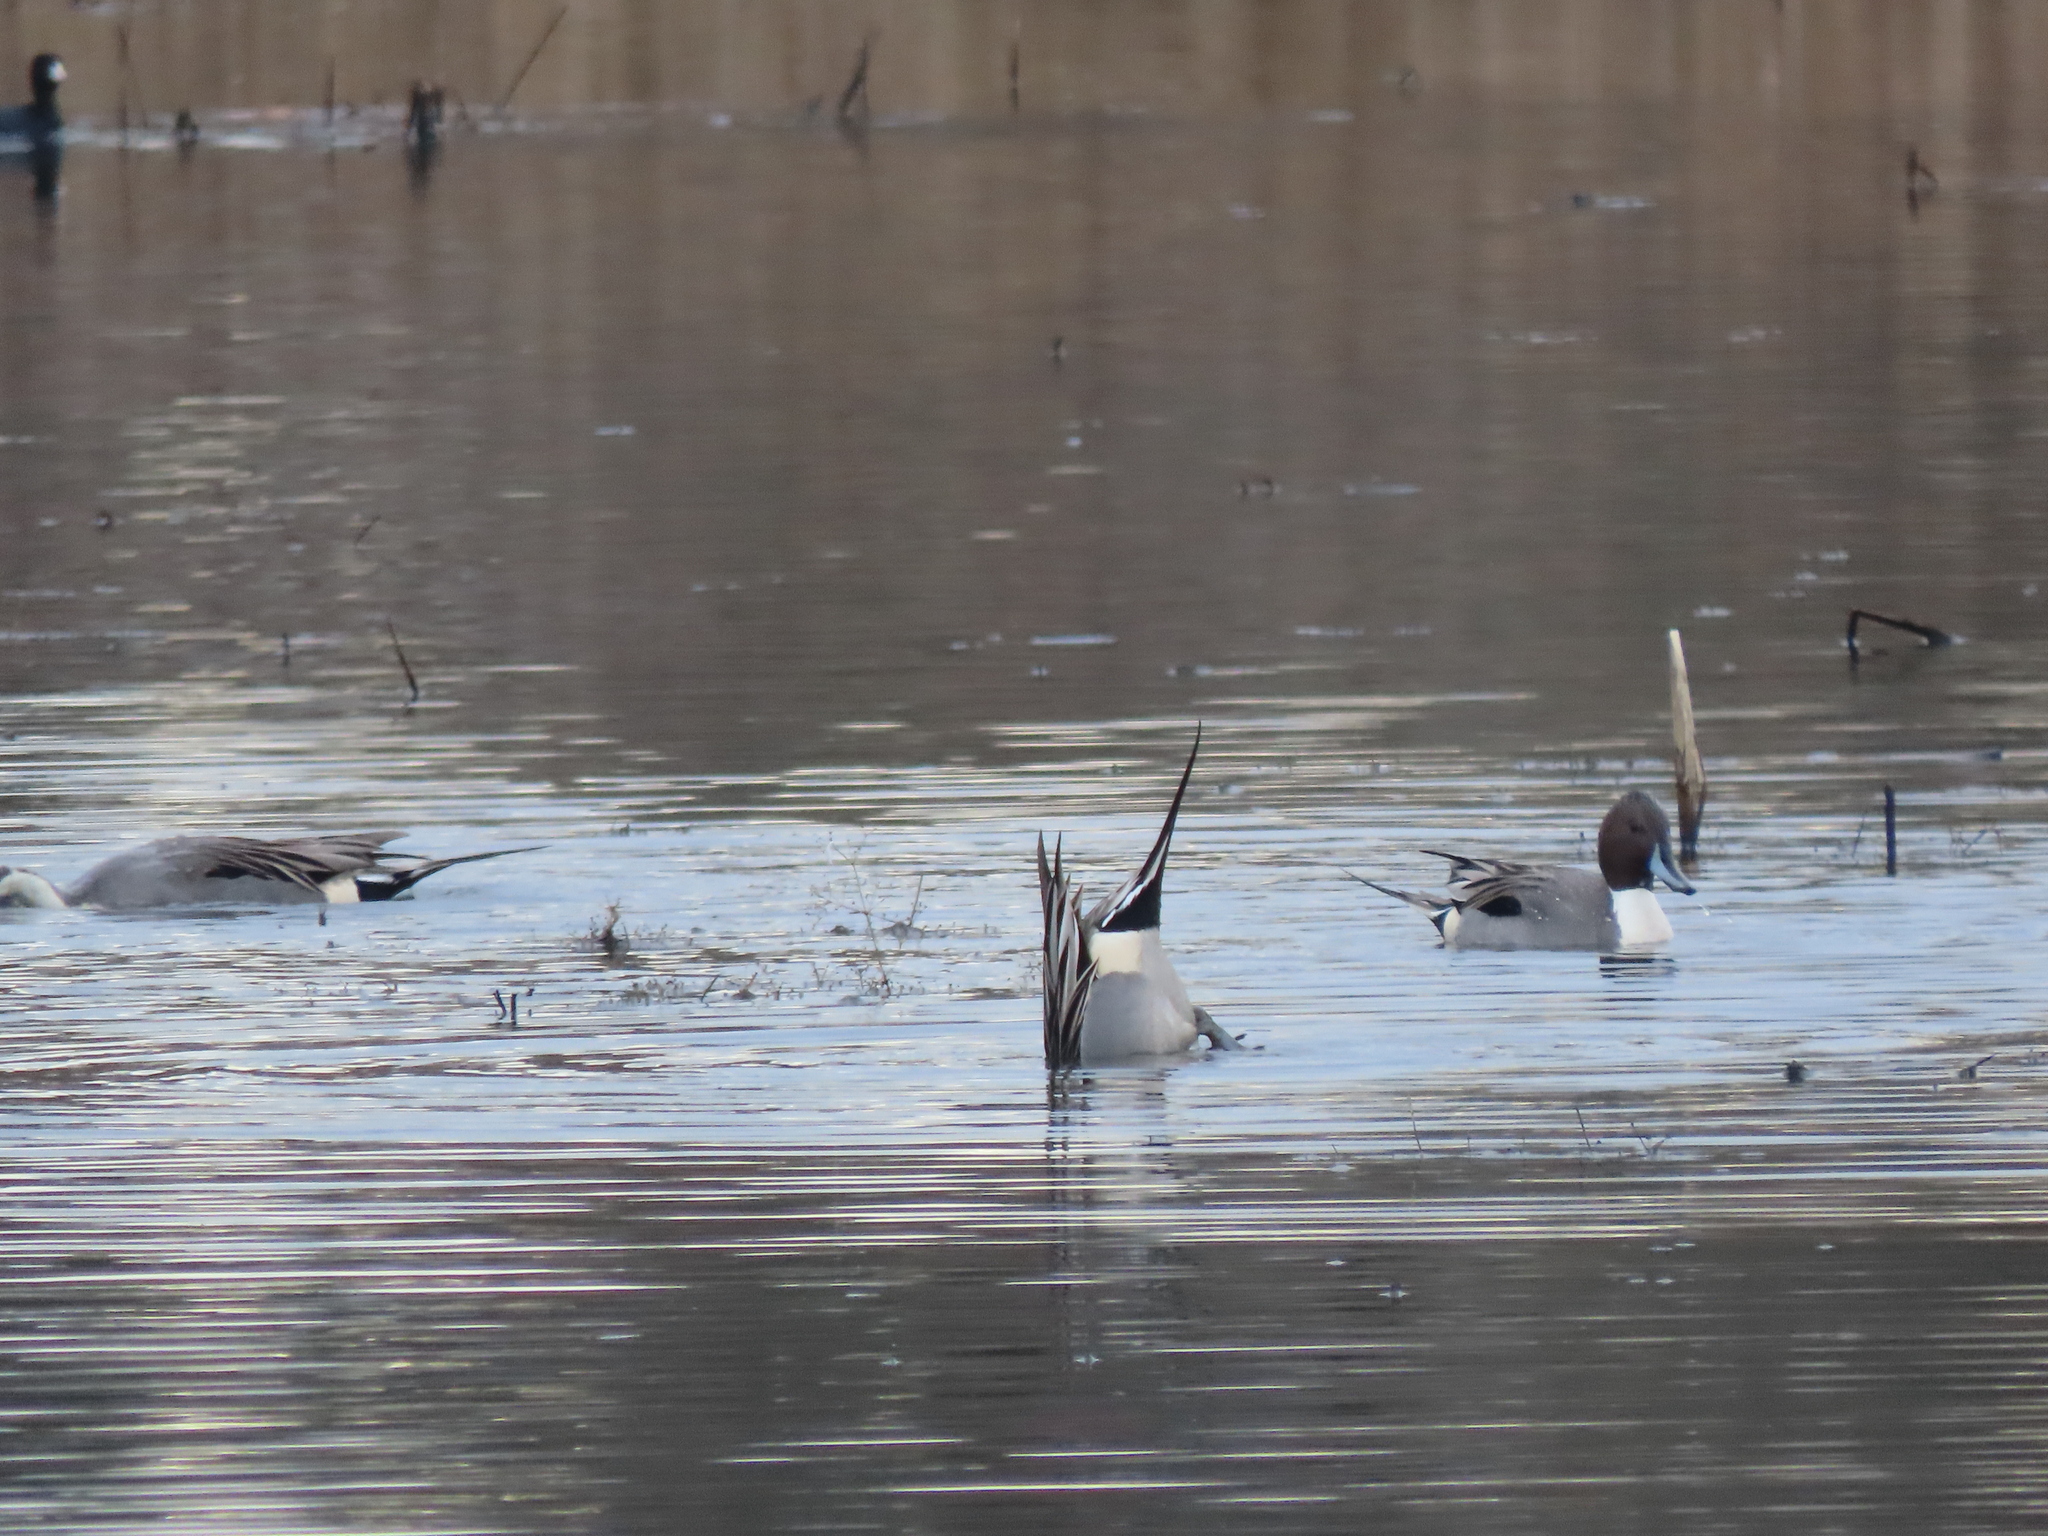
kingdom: Animalia
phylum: Chordata
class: Aves
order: Anseriformes
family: Anatidae
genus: Anas
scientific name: Anas acuta
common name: Northern pintail
